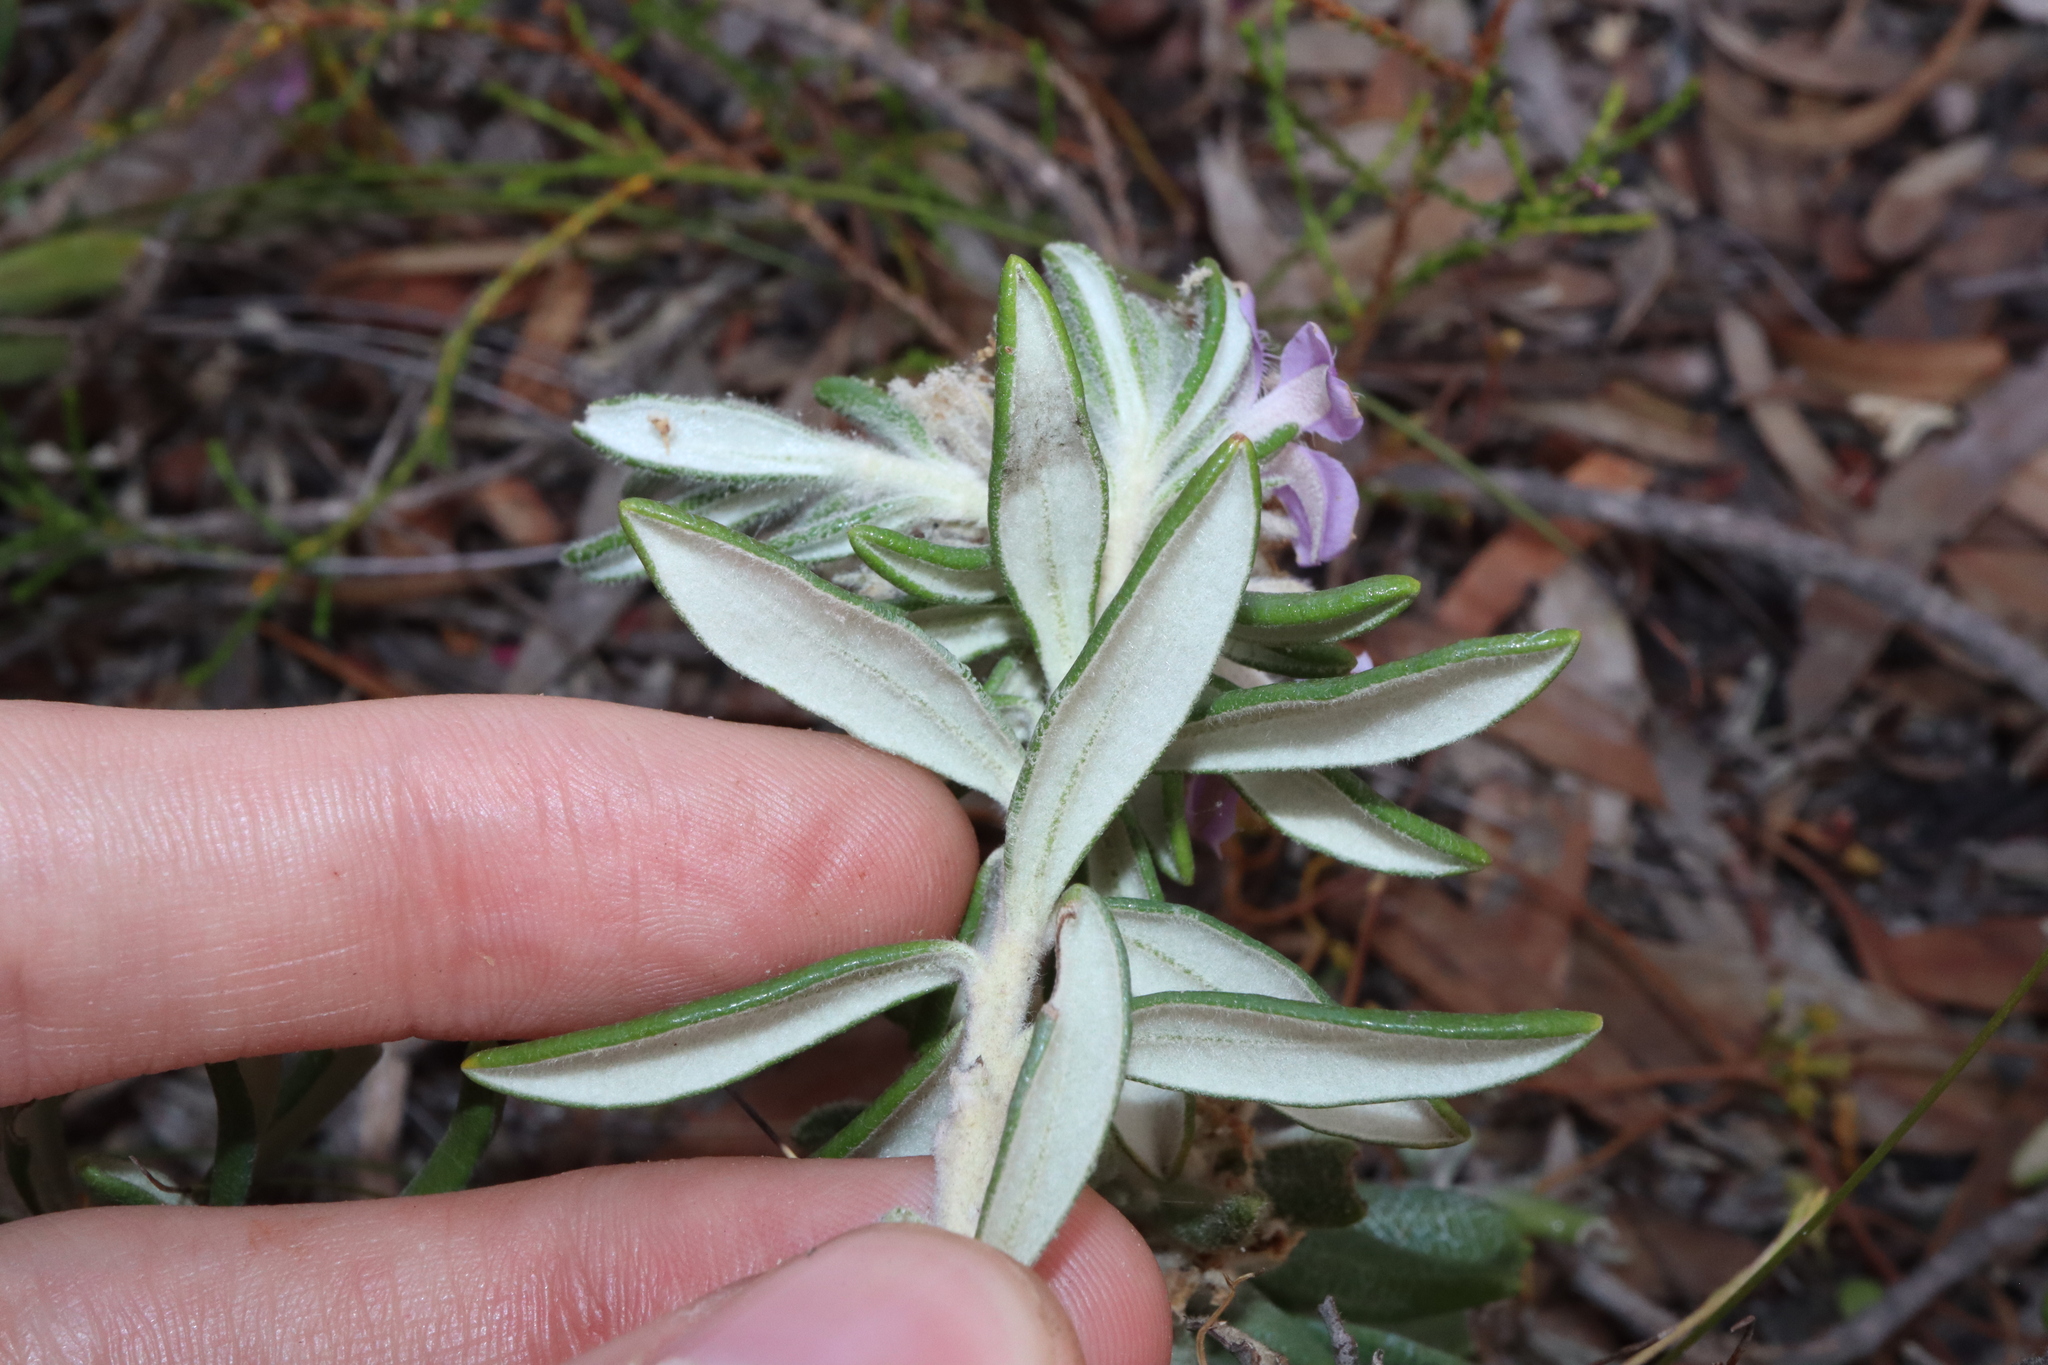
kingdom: Plantae
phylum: Tracheophyta
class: Magnoliopsida
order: Asterales
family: Goodeniaceae
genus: Goodenia
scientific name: Goodenia phylicoides
